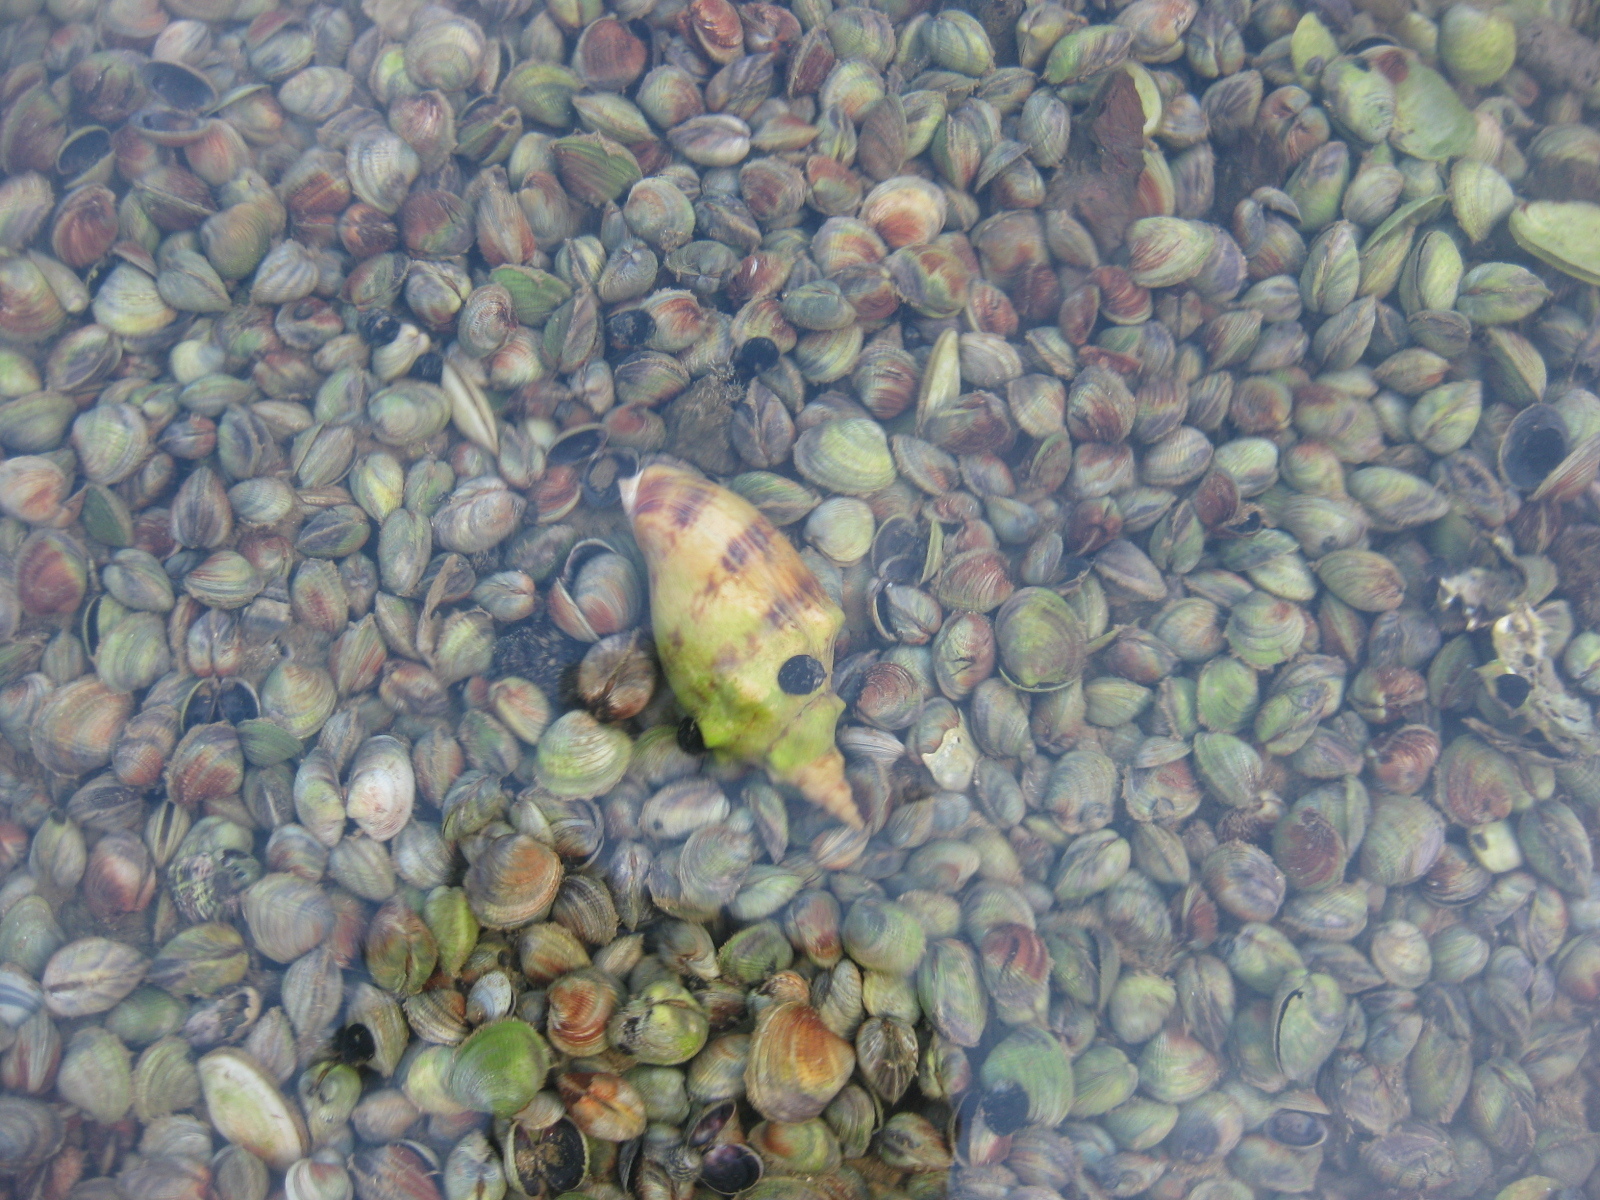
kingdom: Animalia
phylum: Mollusca
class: Gastropoda
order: Neogastropoda
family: Volutidae
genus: Alcithoe
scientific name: Alcithoe arabica
